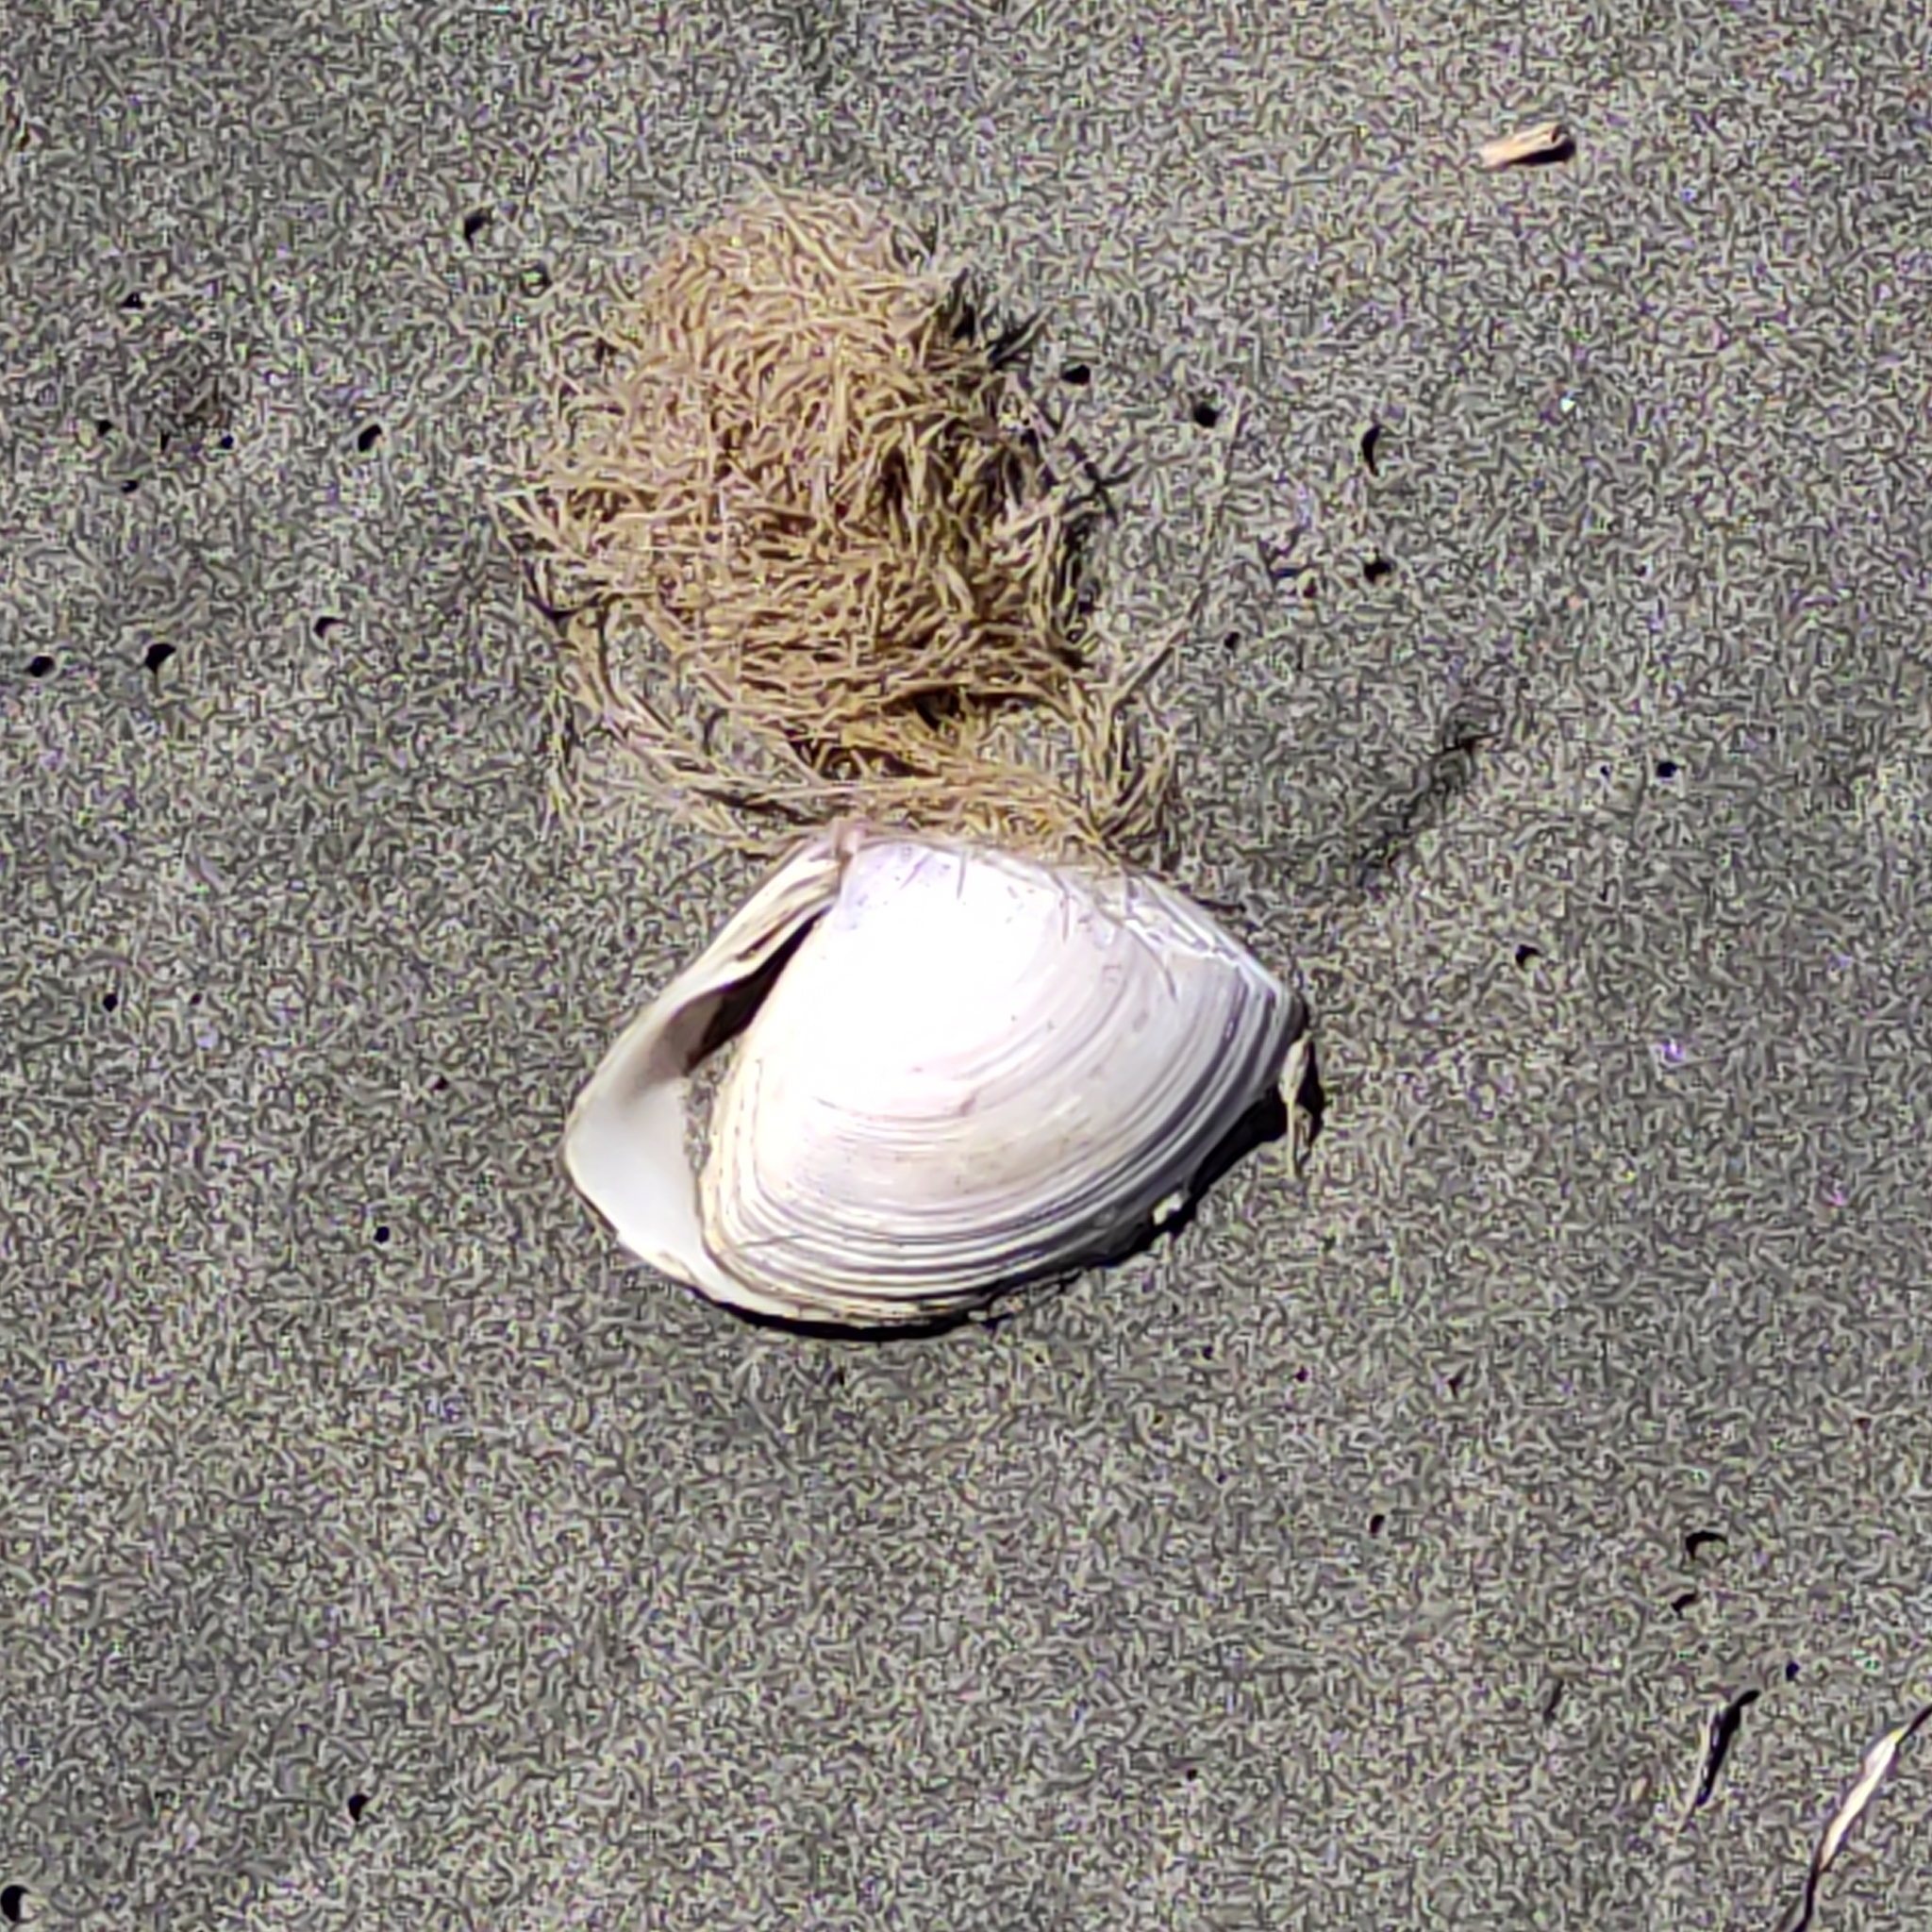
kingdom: Animalia
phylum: Mollusca
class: Bivalvia
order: Venerida
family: Mactridae
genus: Crassula
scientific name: Crassula aequilatera
